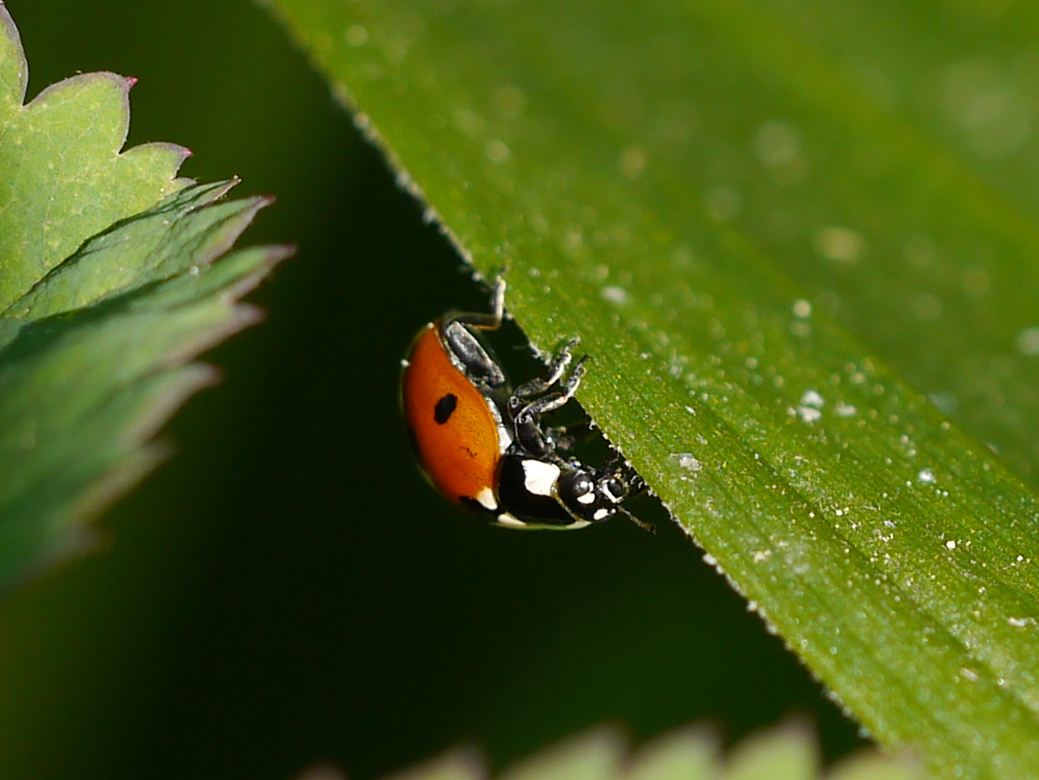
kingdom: Animalia
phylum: Arthropoda
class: Insecta
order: Coleoptera
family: Coccinellidae
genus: Coccinella
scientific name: Coccinella septempunctata
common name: Sevenspotted lady beetle
